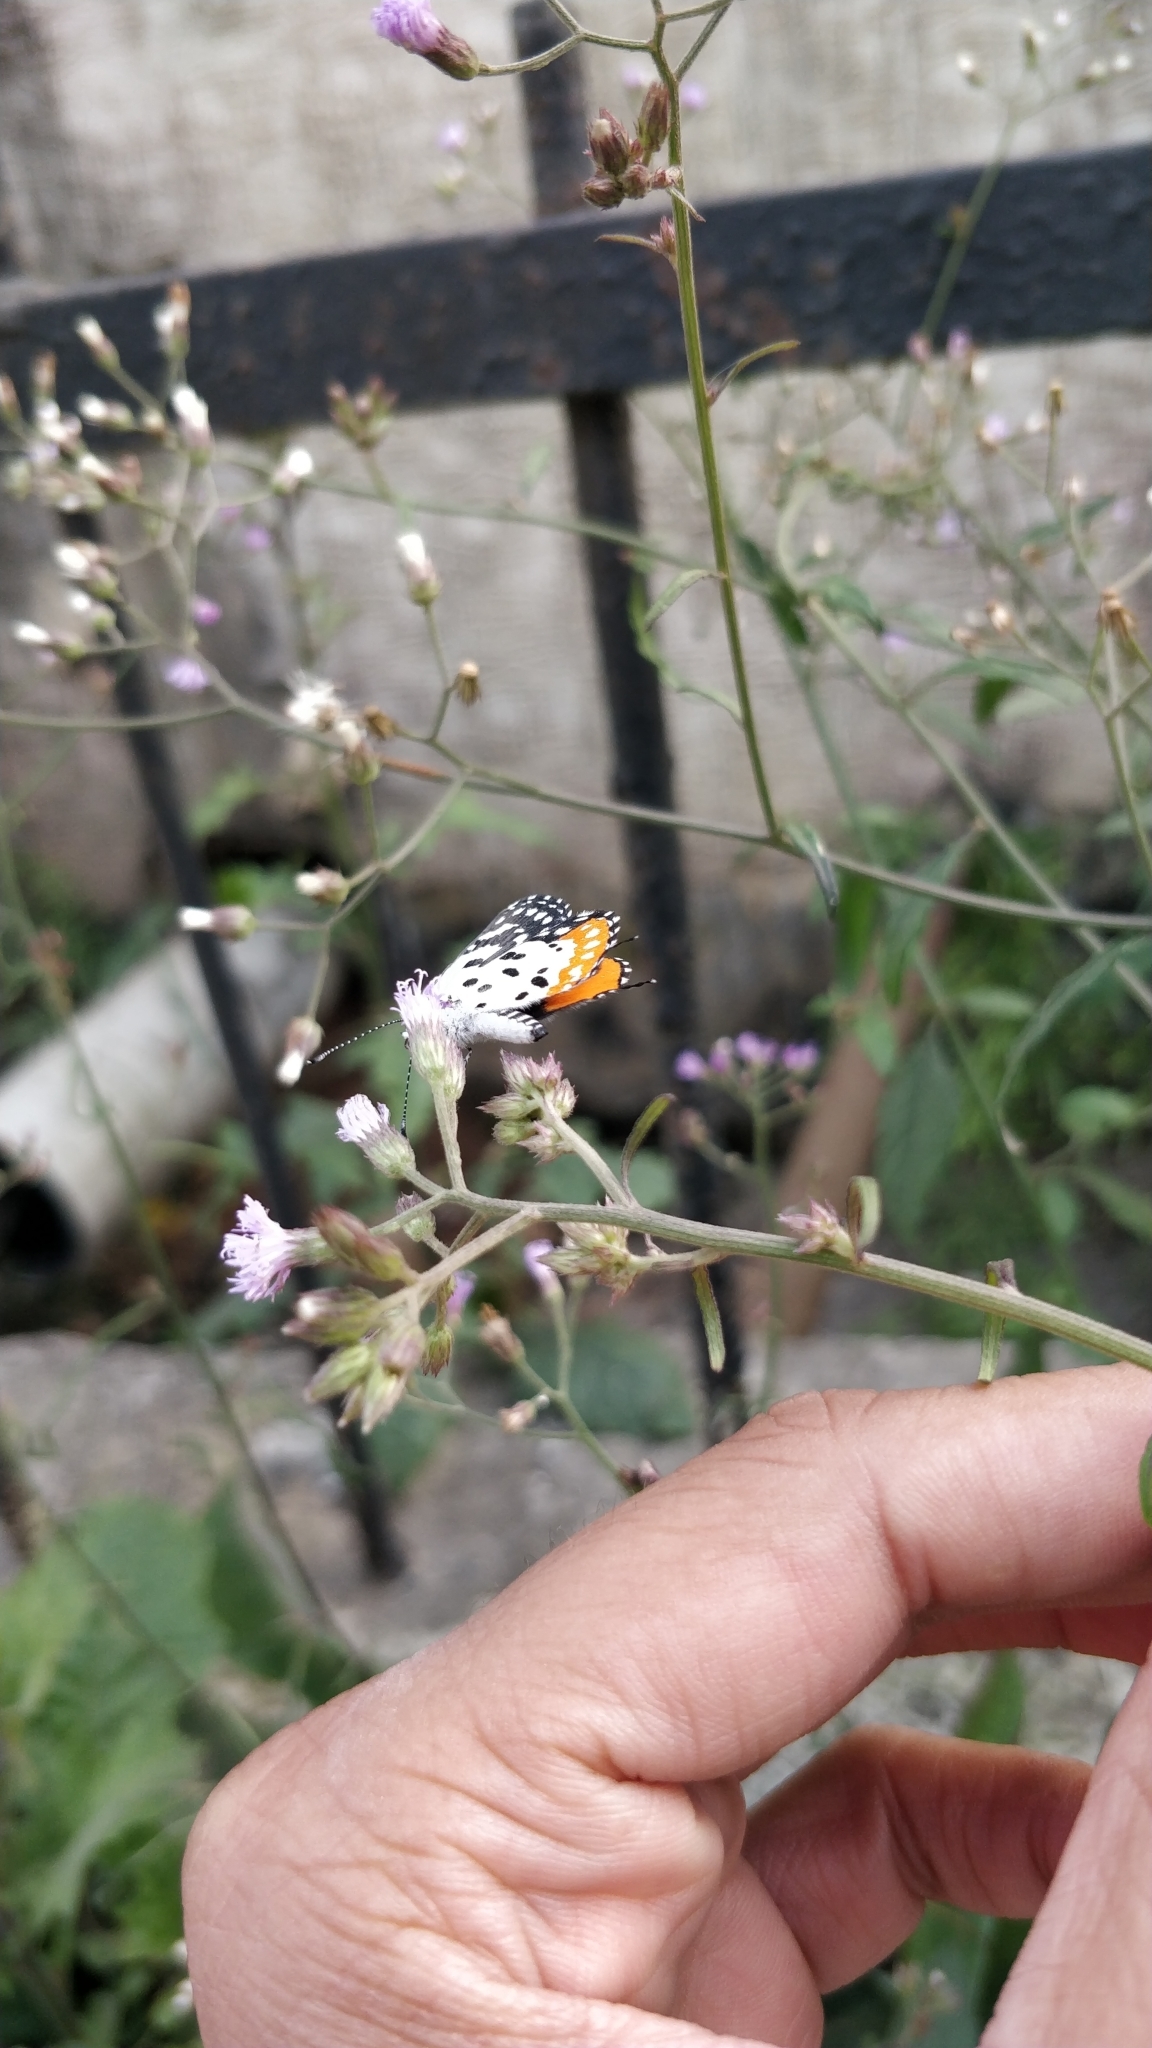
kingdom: Animalia
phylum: Arthropoda
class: Insecta
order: Lepidoptera
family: Lycaenidae
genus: Talicada
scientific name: Talicada nyseus
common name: Red pierrot
